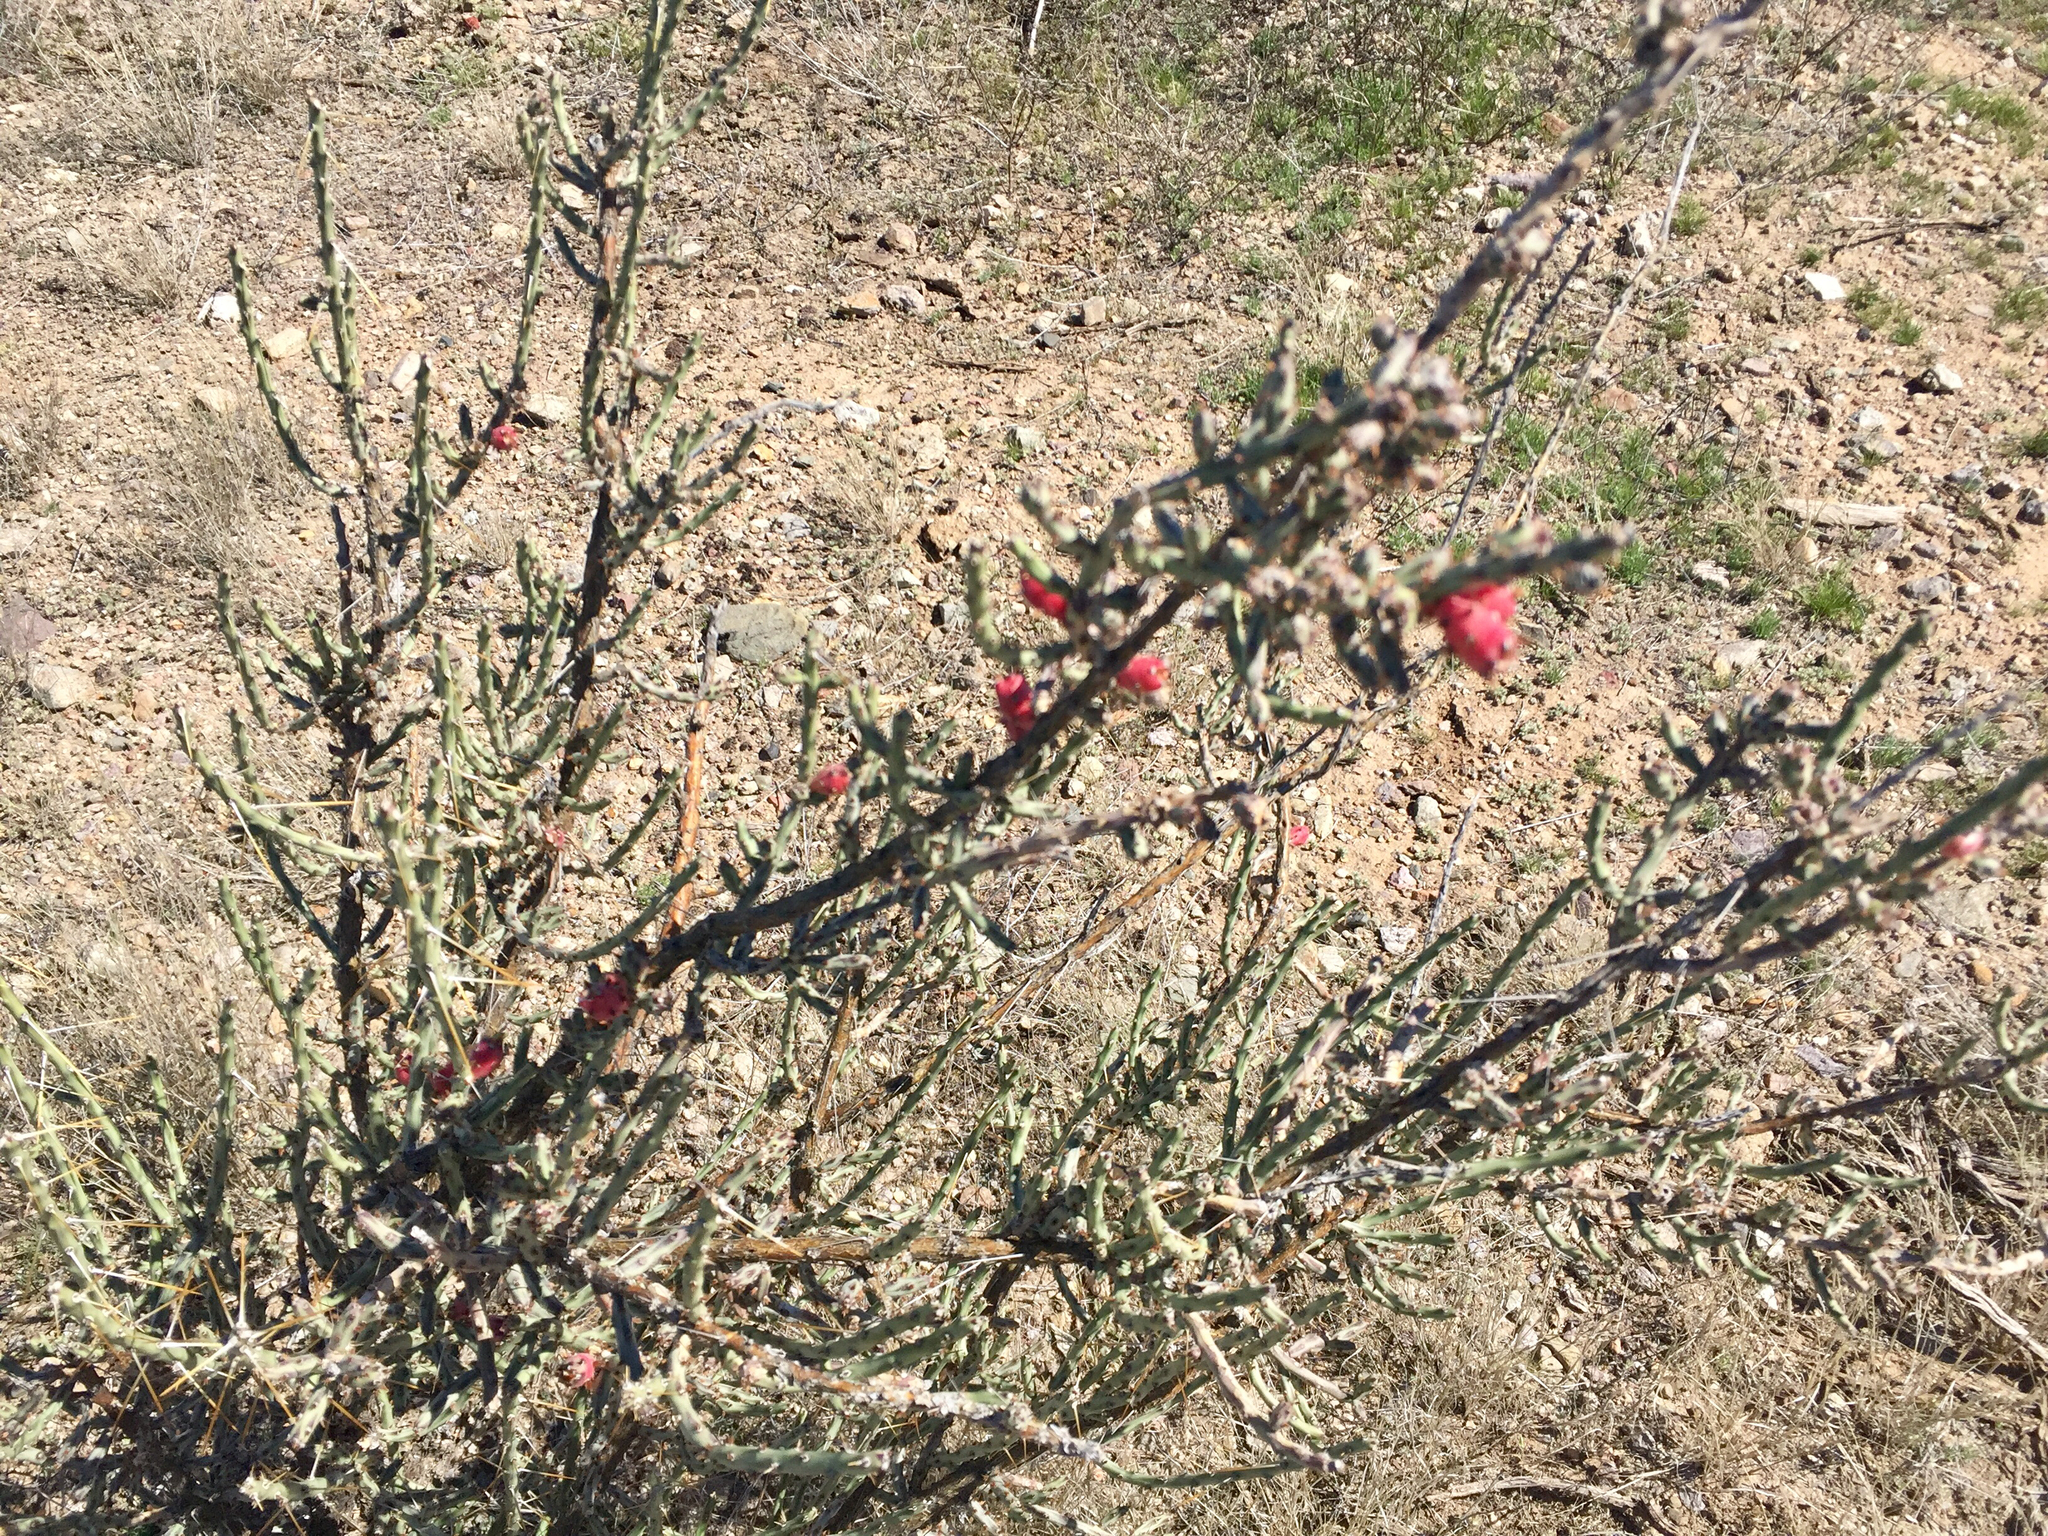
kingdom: Plantae
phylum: Tracheophyta
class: Magnoliopsida
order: Caryophyllales
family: Cactaceae
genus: Cylindropuntia
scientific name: Cylindropuntia leptocaulis
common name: Christmas cactus
